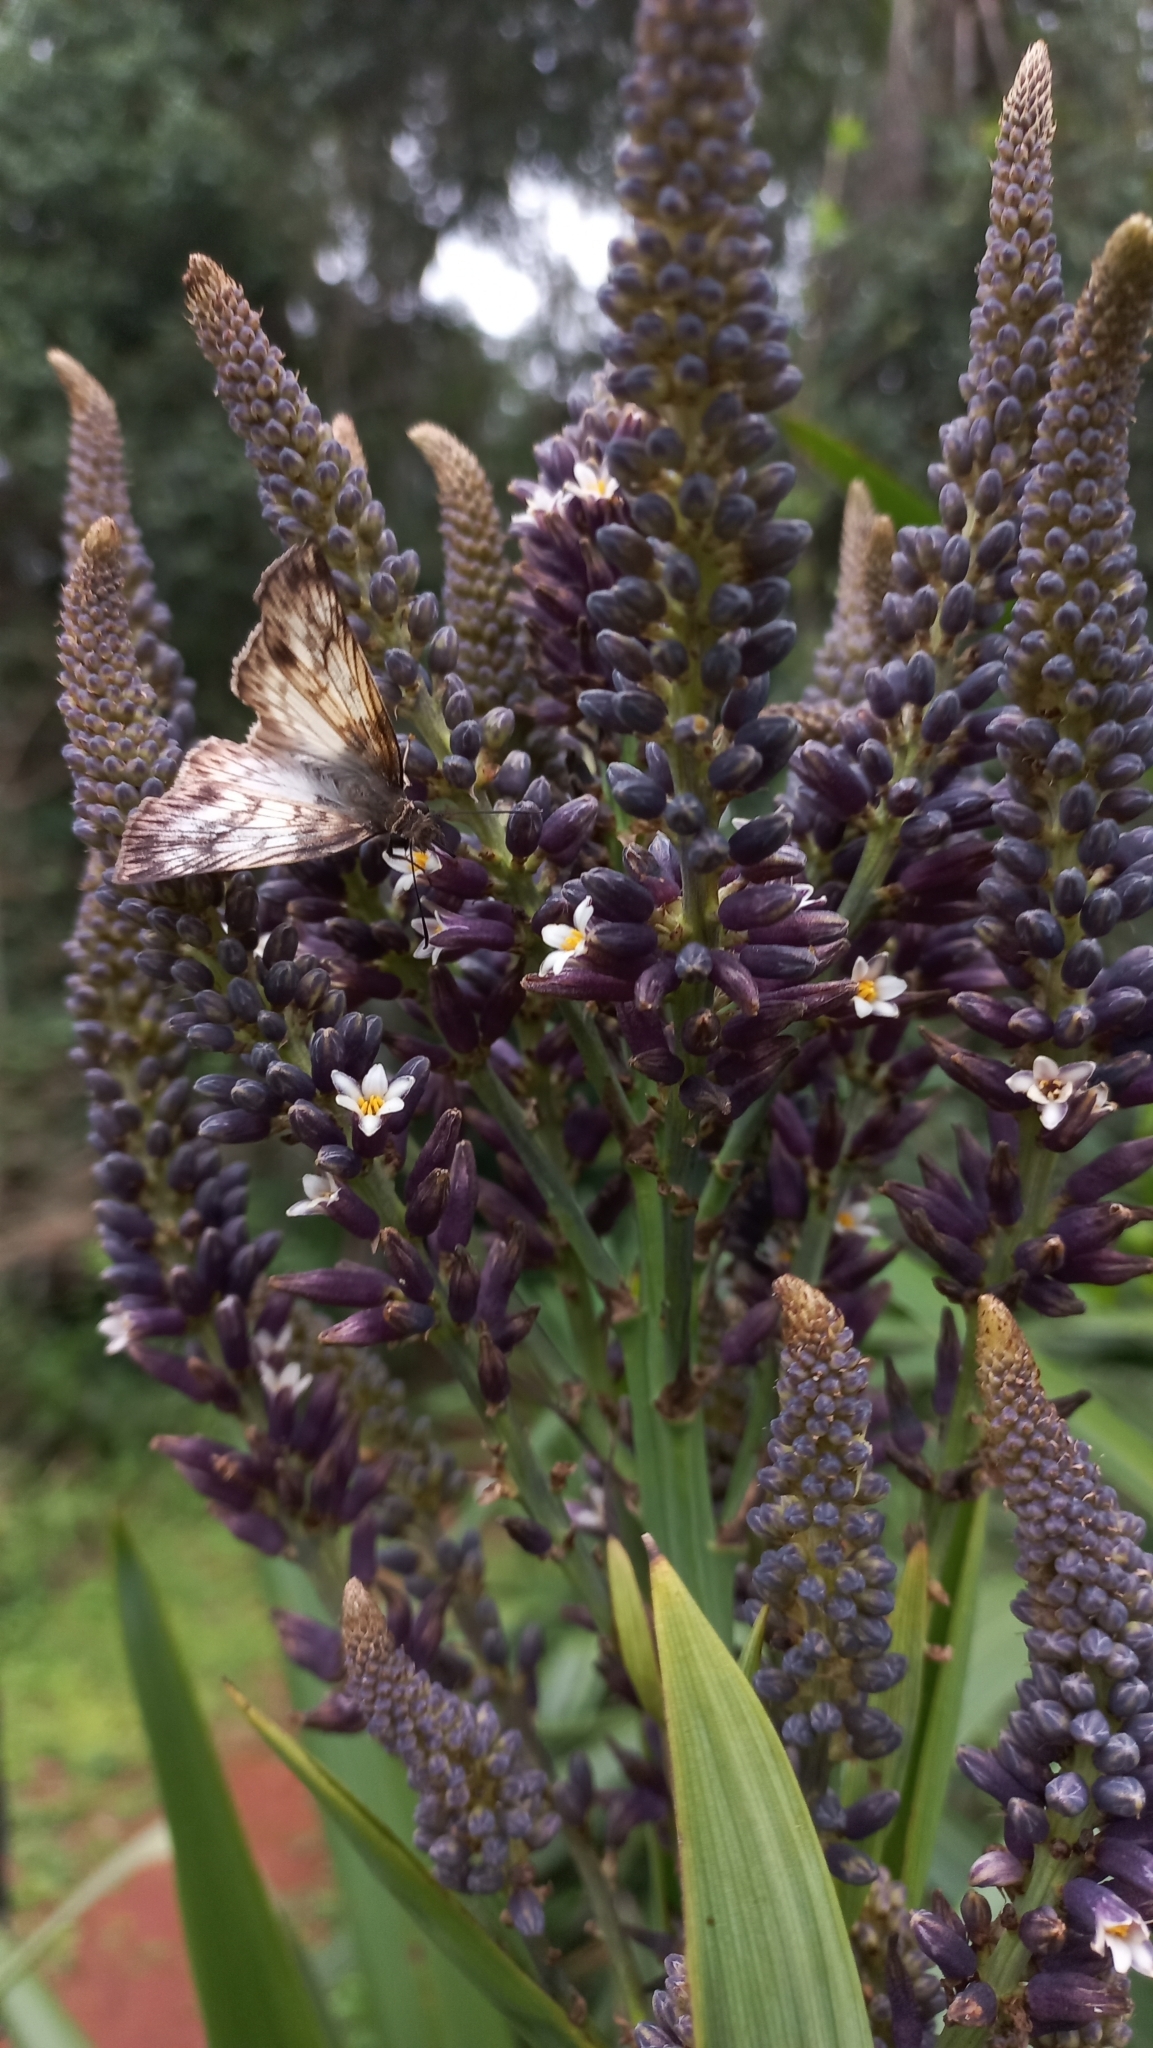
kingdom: Animalia
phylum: Arthropoda
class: Insecta
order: Lepidoptera
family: Hesperiidae
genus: Mylon
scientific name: Mylon maimon
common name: Common mylon
